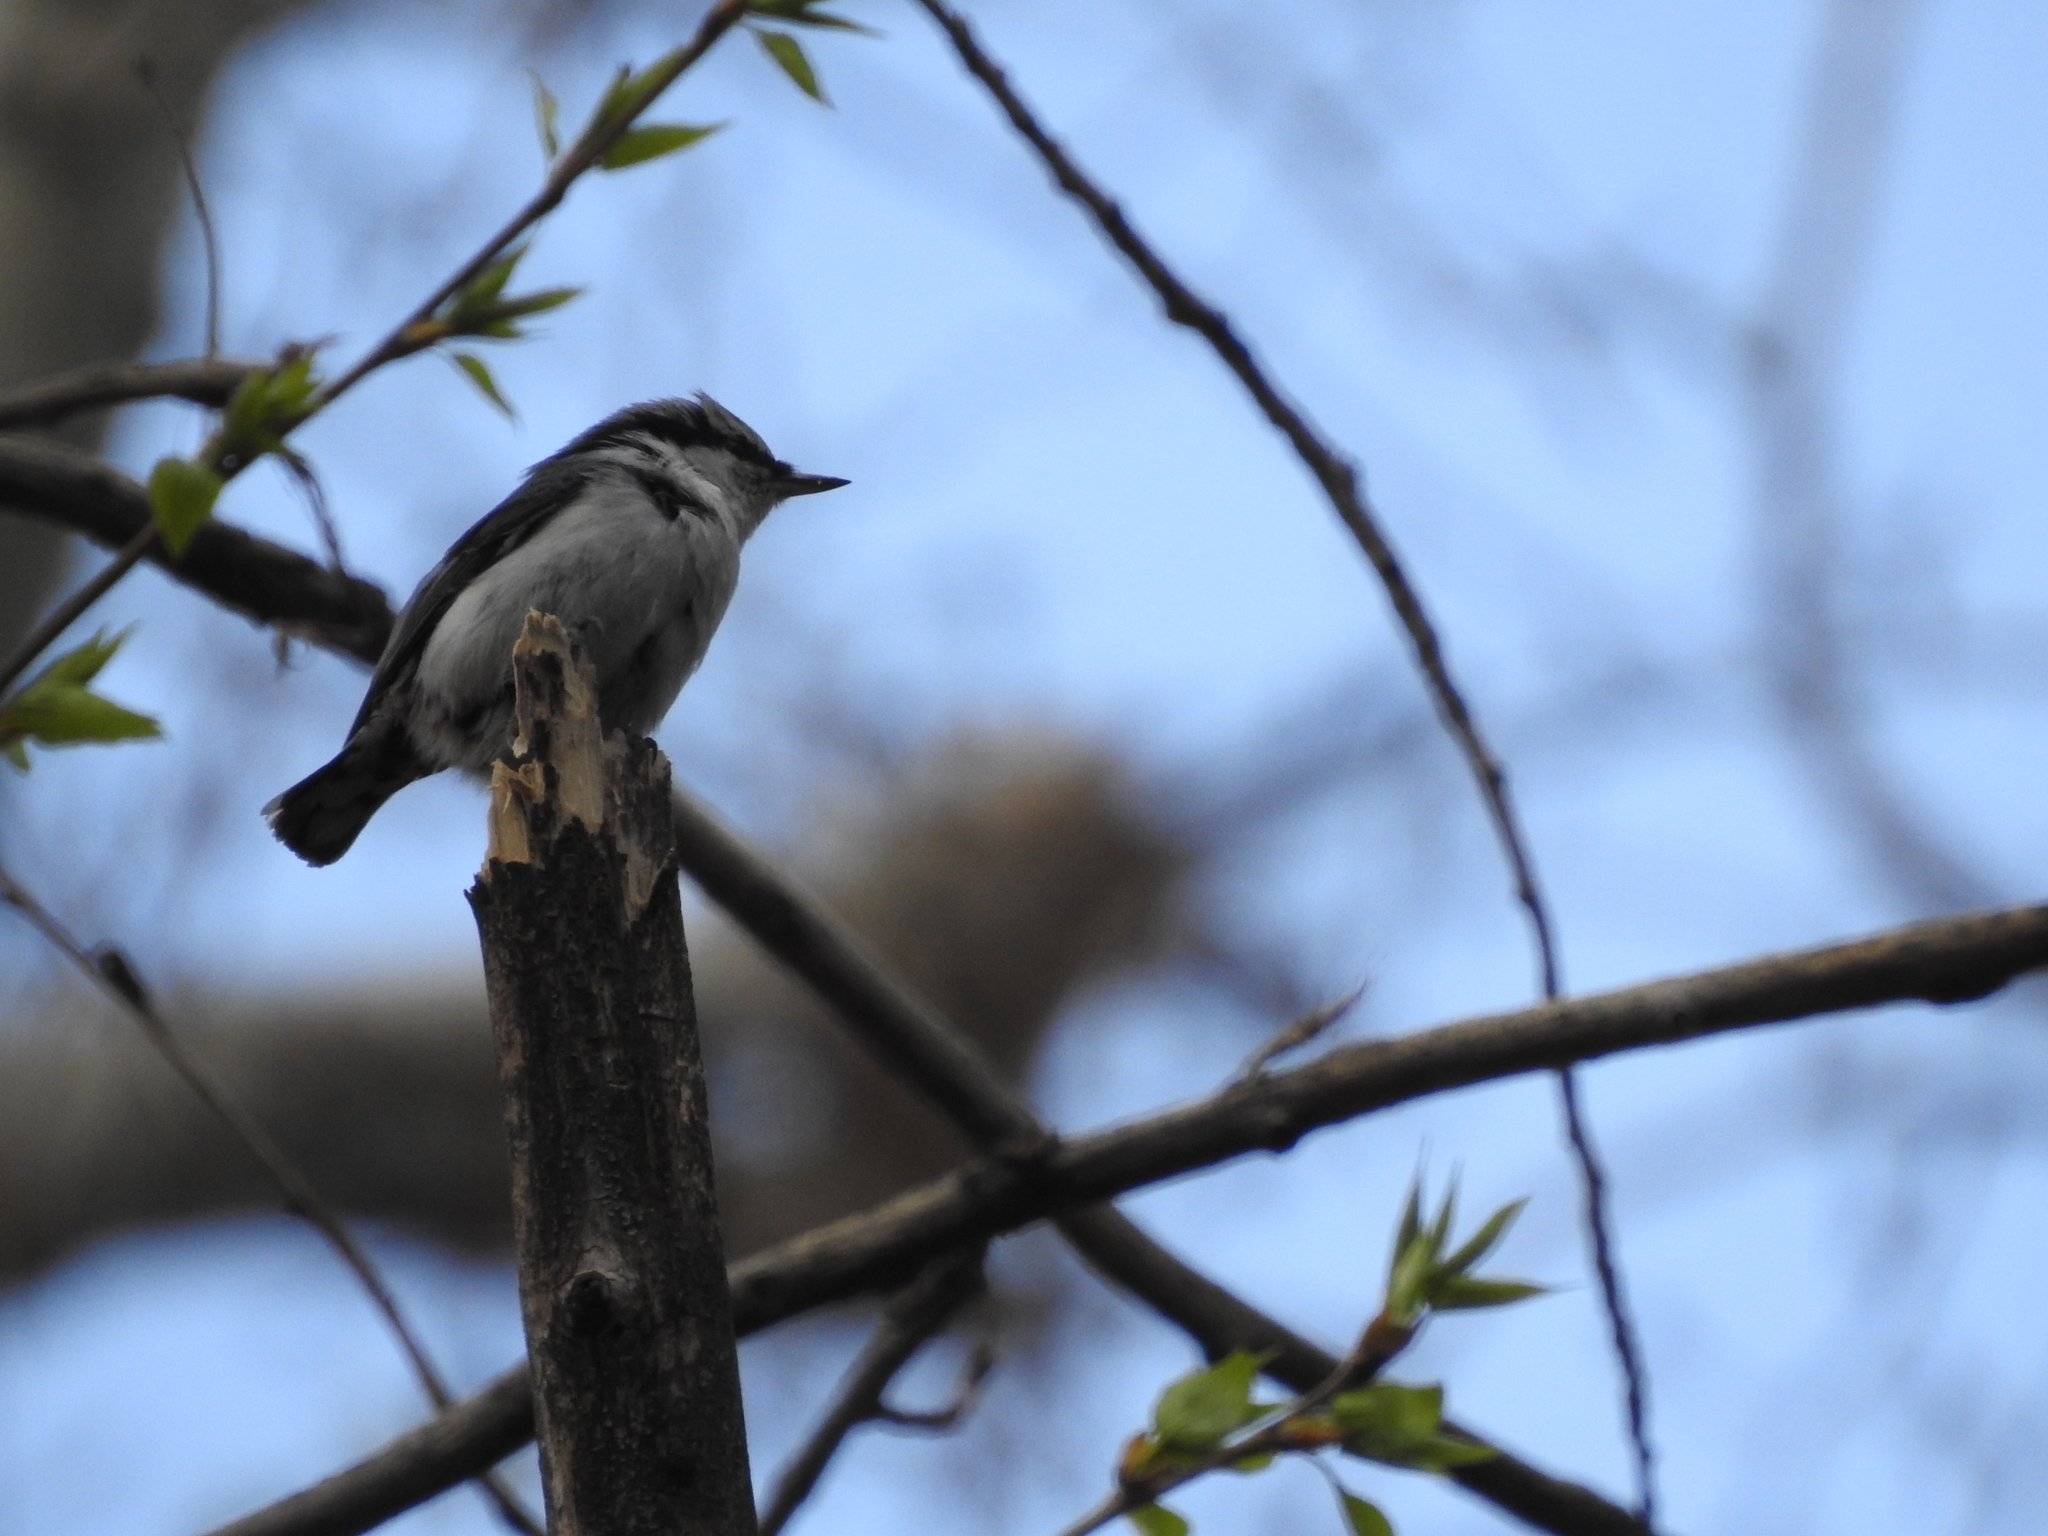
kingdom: Animalia
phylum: Chordata
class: Aves
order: Passeriformes
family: Sittidae
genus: Sitta
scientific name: Sitta europaea
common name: Eurasian nuthatch
